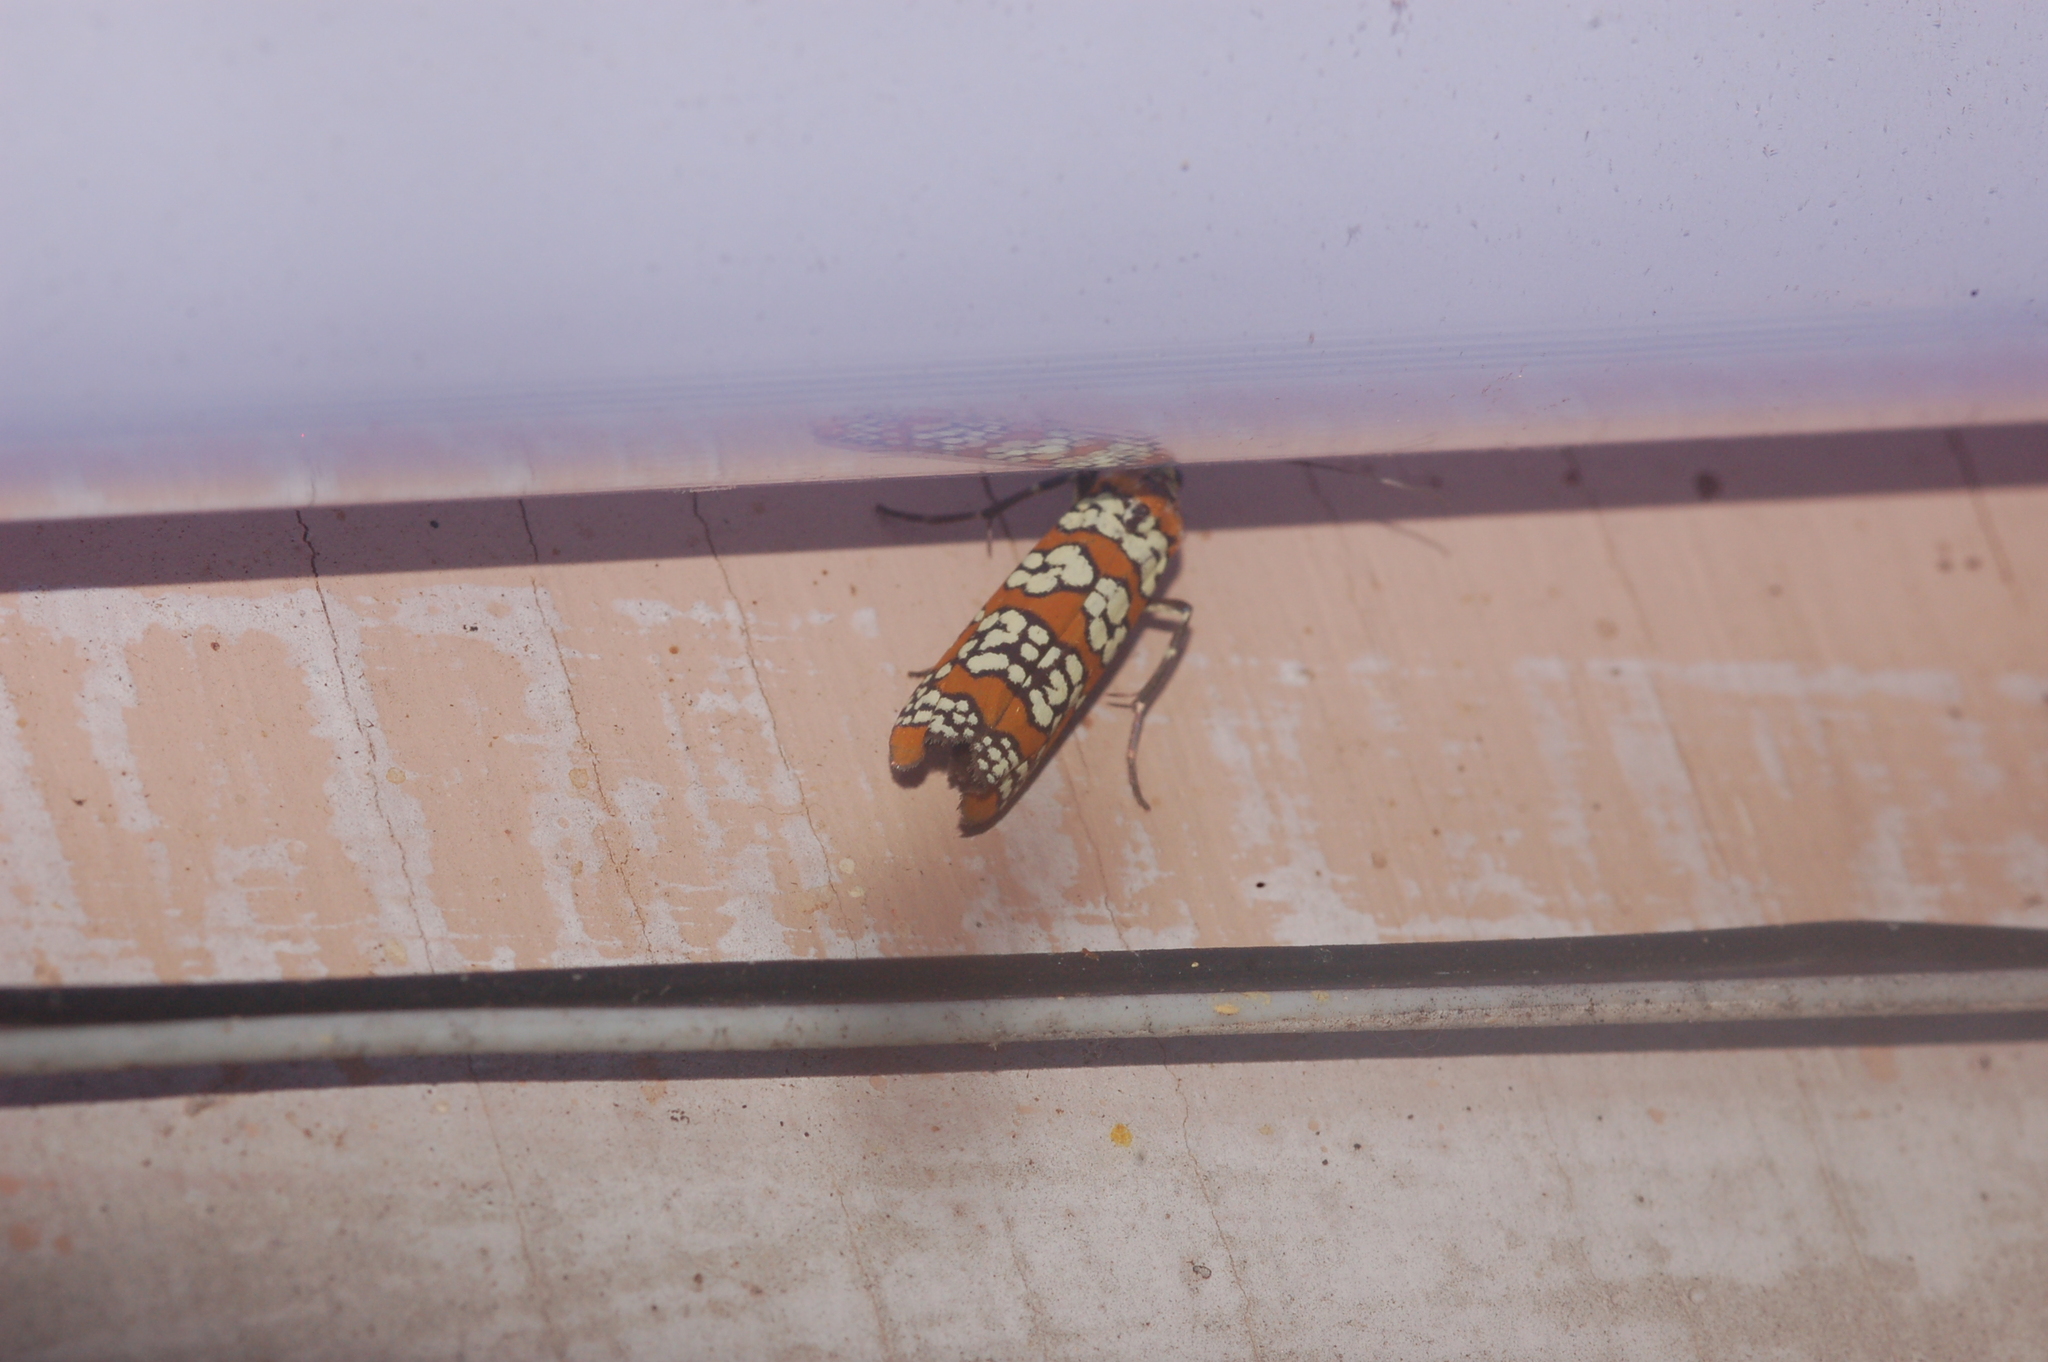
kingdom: Animalia
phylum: Arthropoda
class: Insecta
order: Lepidoptera
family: Attevidae
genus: Atteva
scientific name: Atteva punctella
